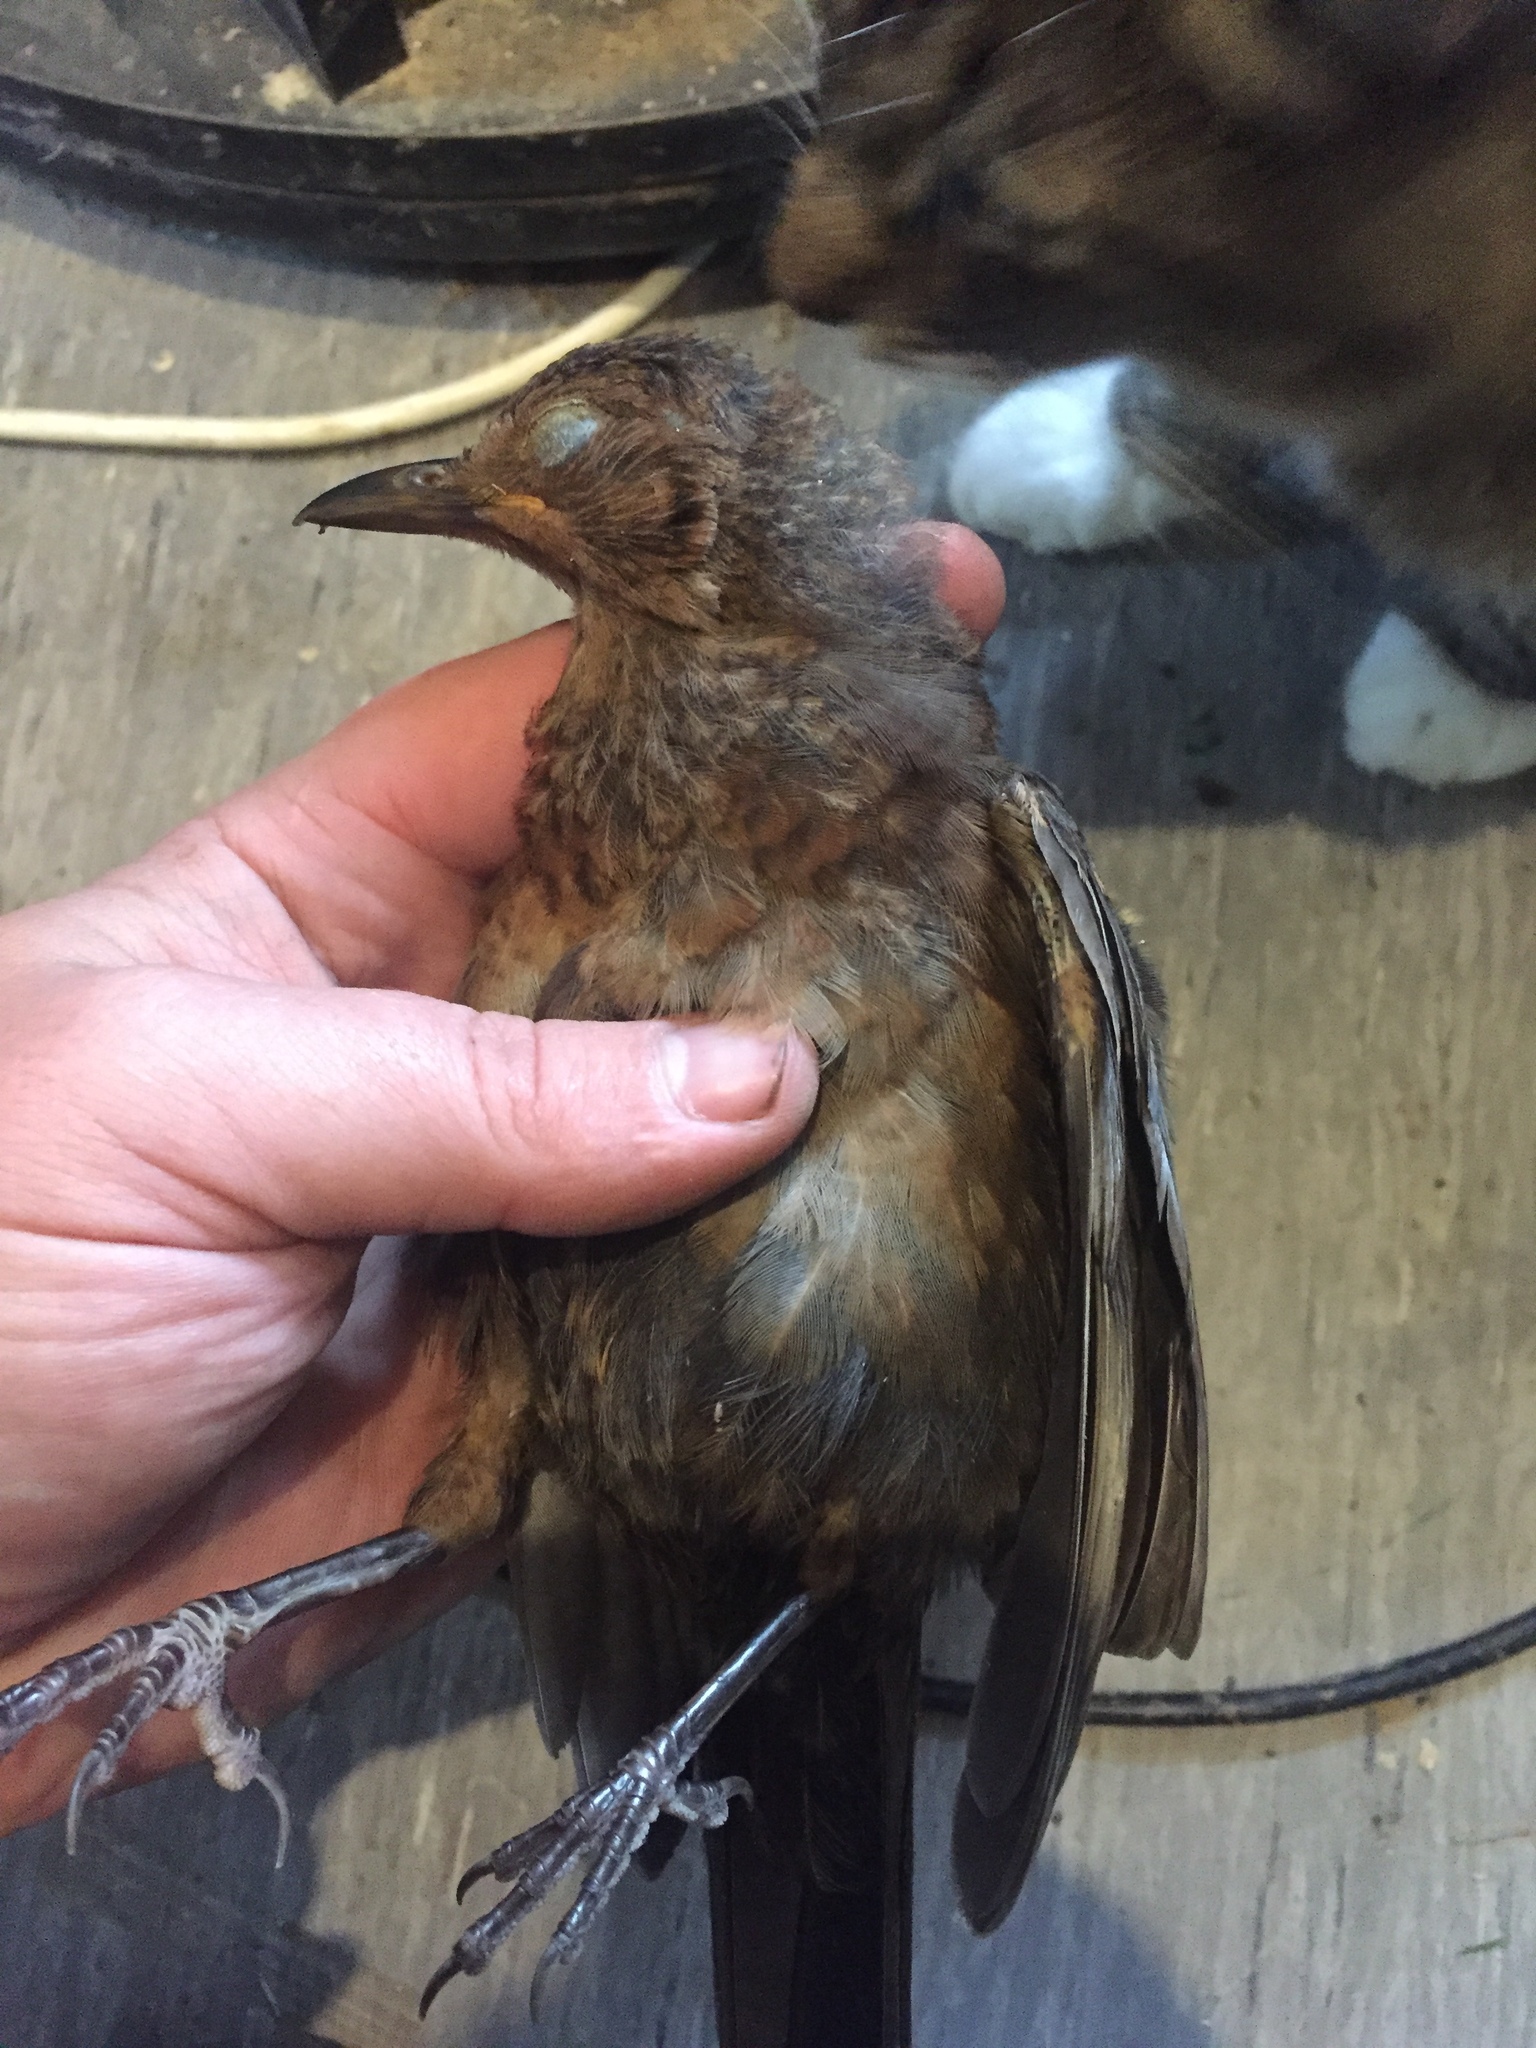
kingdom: Animalia
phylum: Chordata
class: Aves
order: Passeriformes
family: Turdidae
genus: Turdus
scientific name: Turdus merula
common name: Common blackbird
